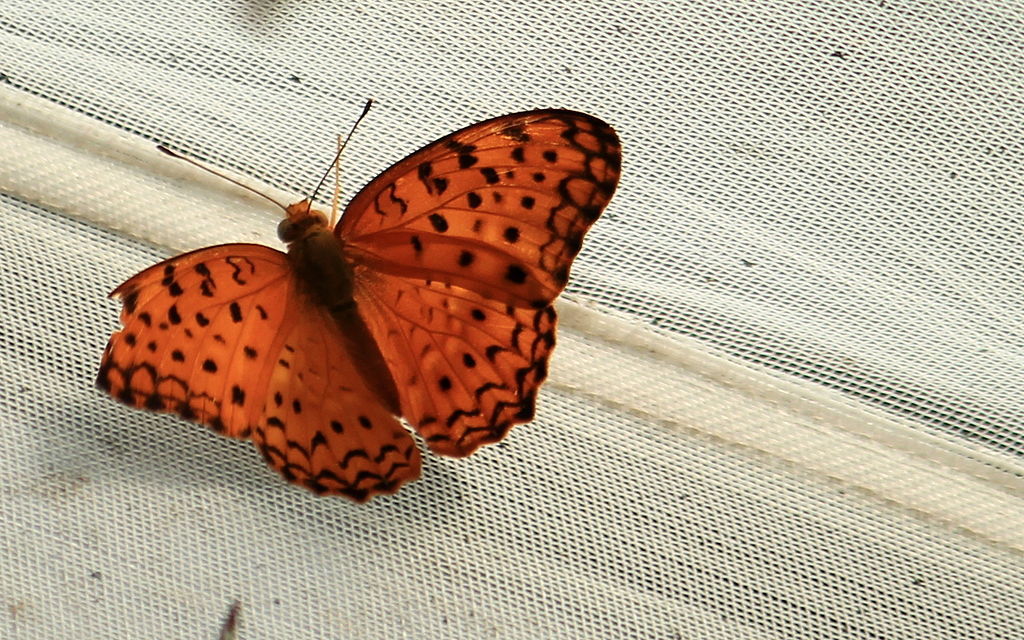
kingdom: Animalia
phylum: Arthropoda
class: Insecta
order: Lepidoptera
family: Nymphalidae
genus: Phalanta
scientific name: Phalanta phalantha
